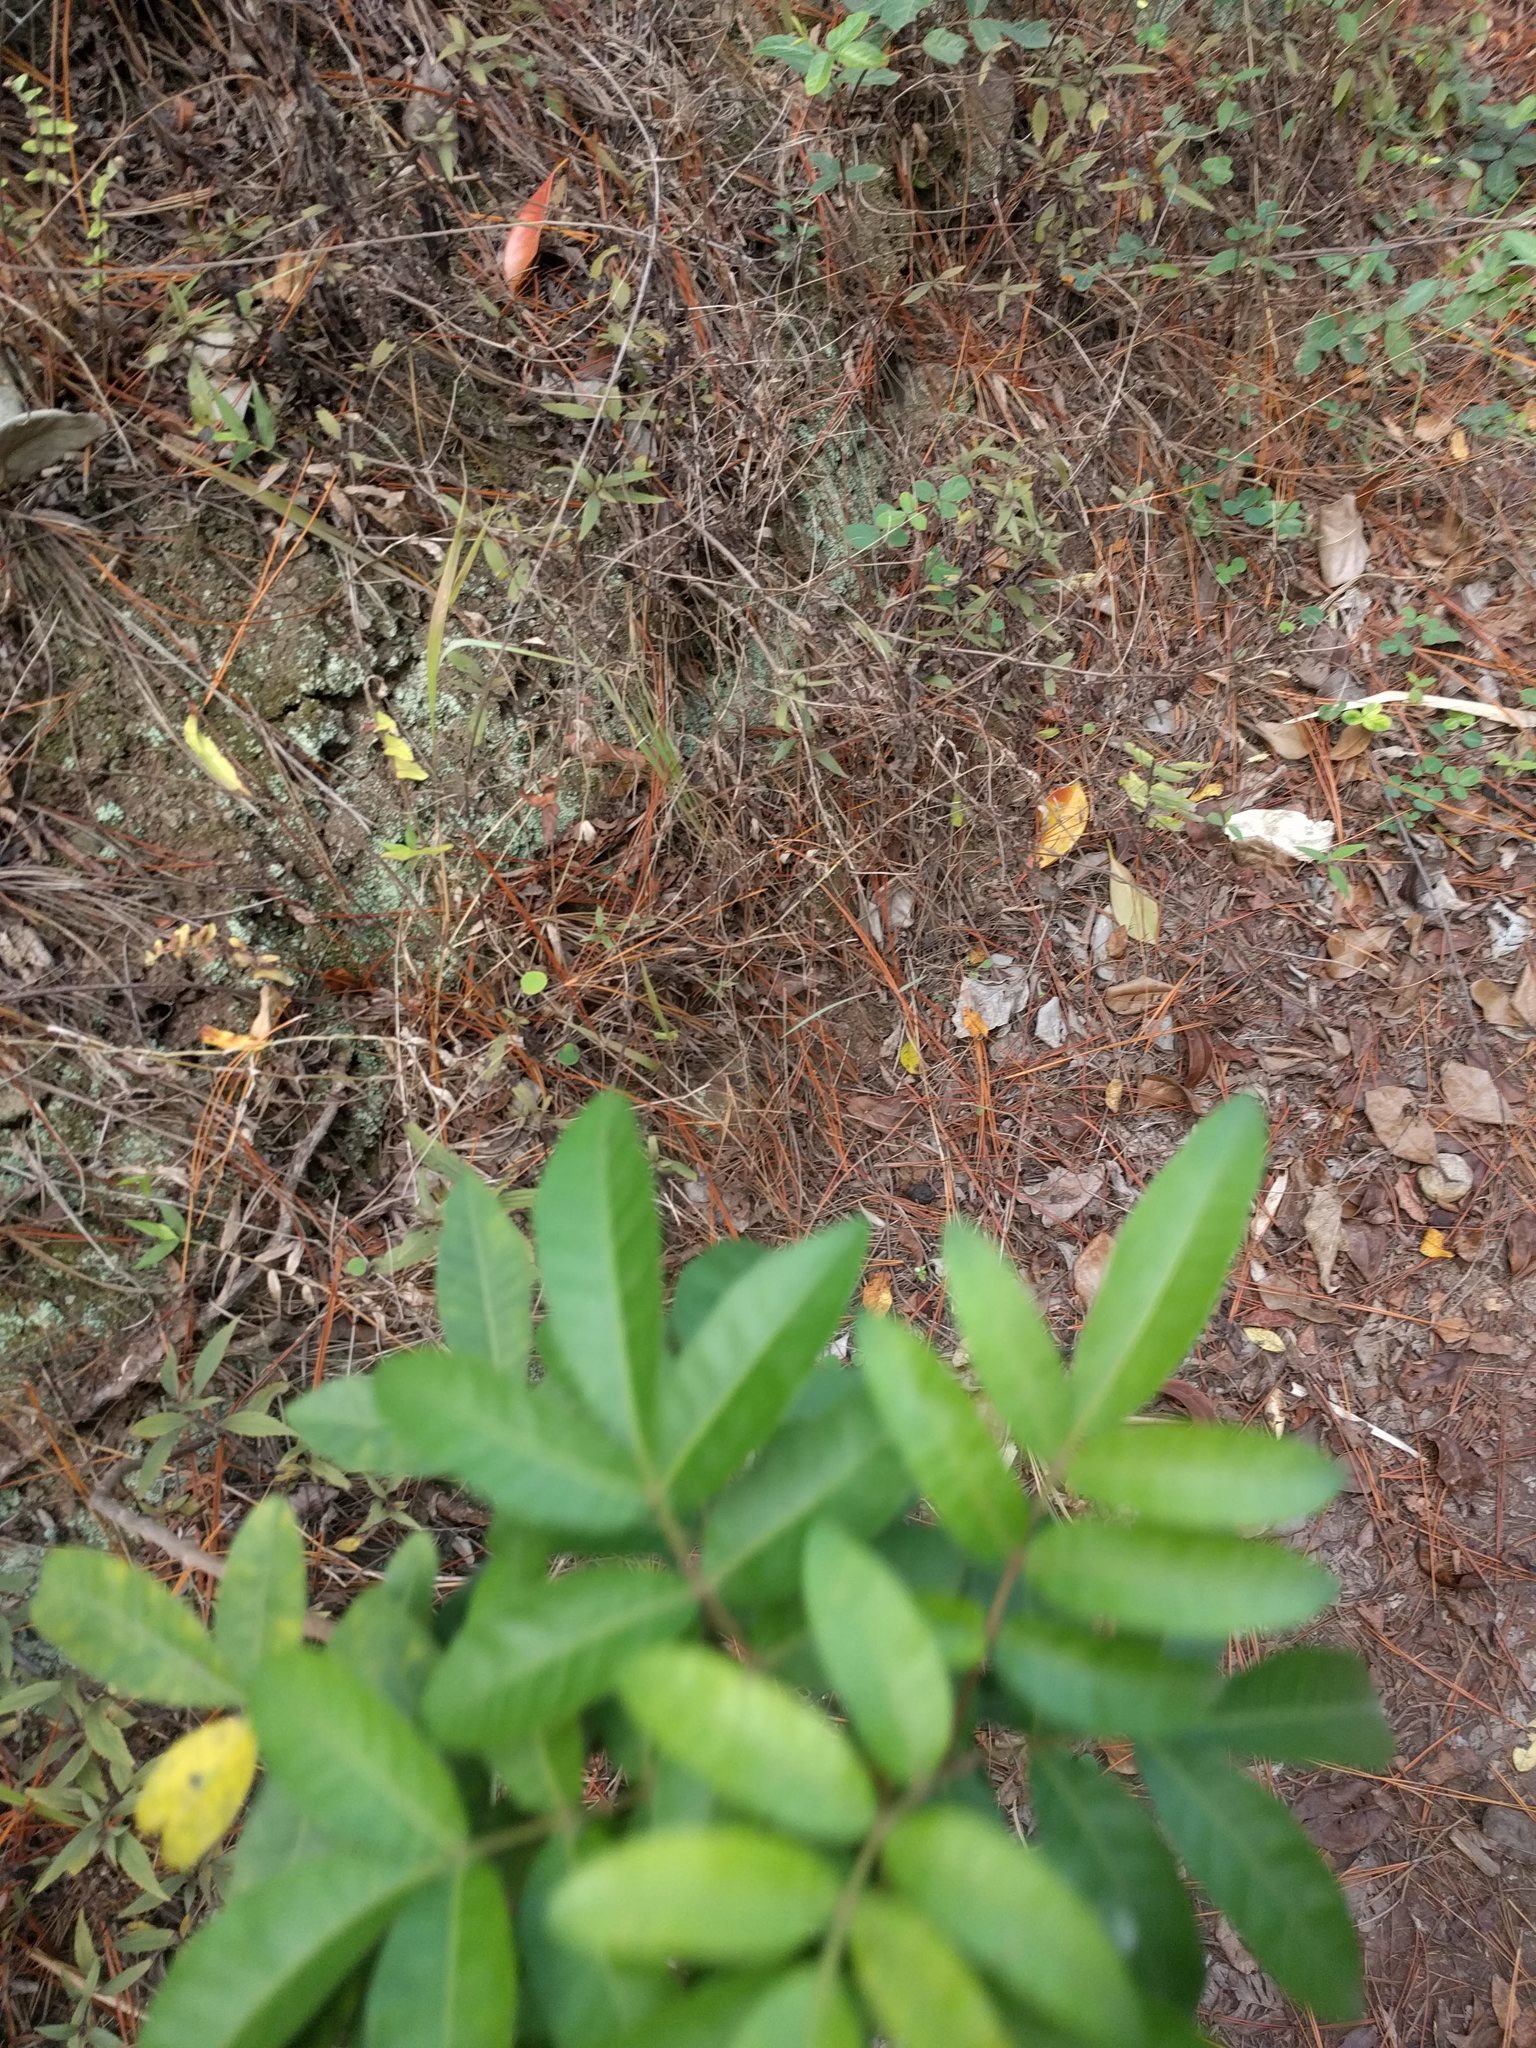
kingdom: Plantae
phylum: Tracheophyta
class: Magnoliopsida
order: Sapindales
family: Anacardiaceae
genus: Schinus
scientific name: Schinus terebinthifolia
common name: Brazilian peppertree
